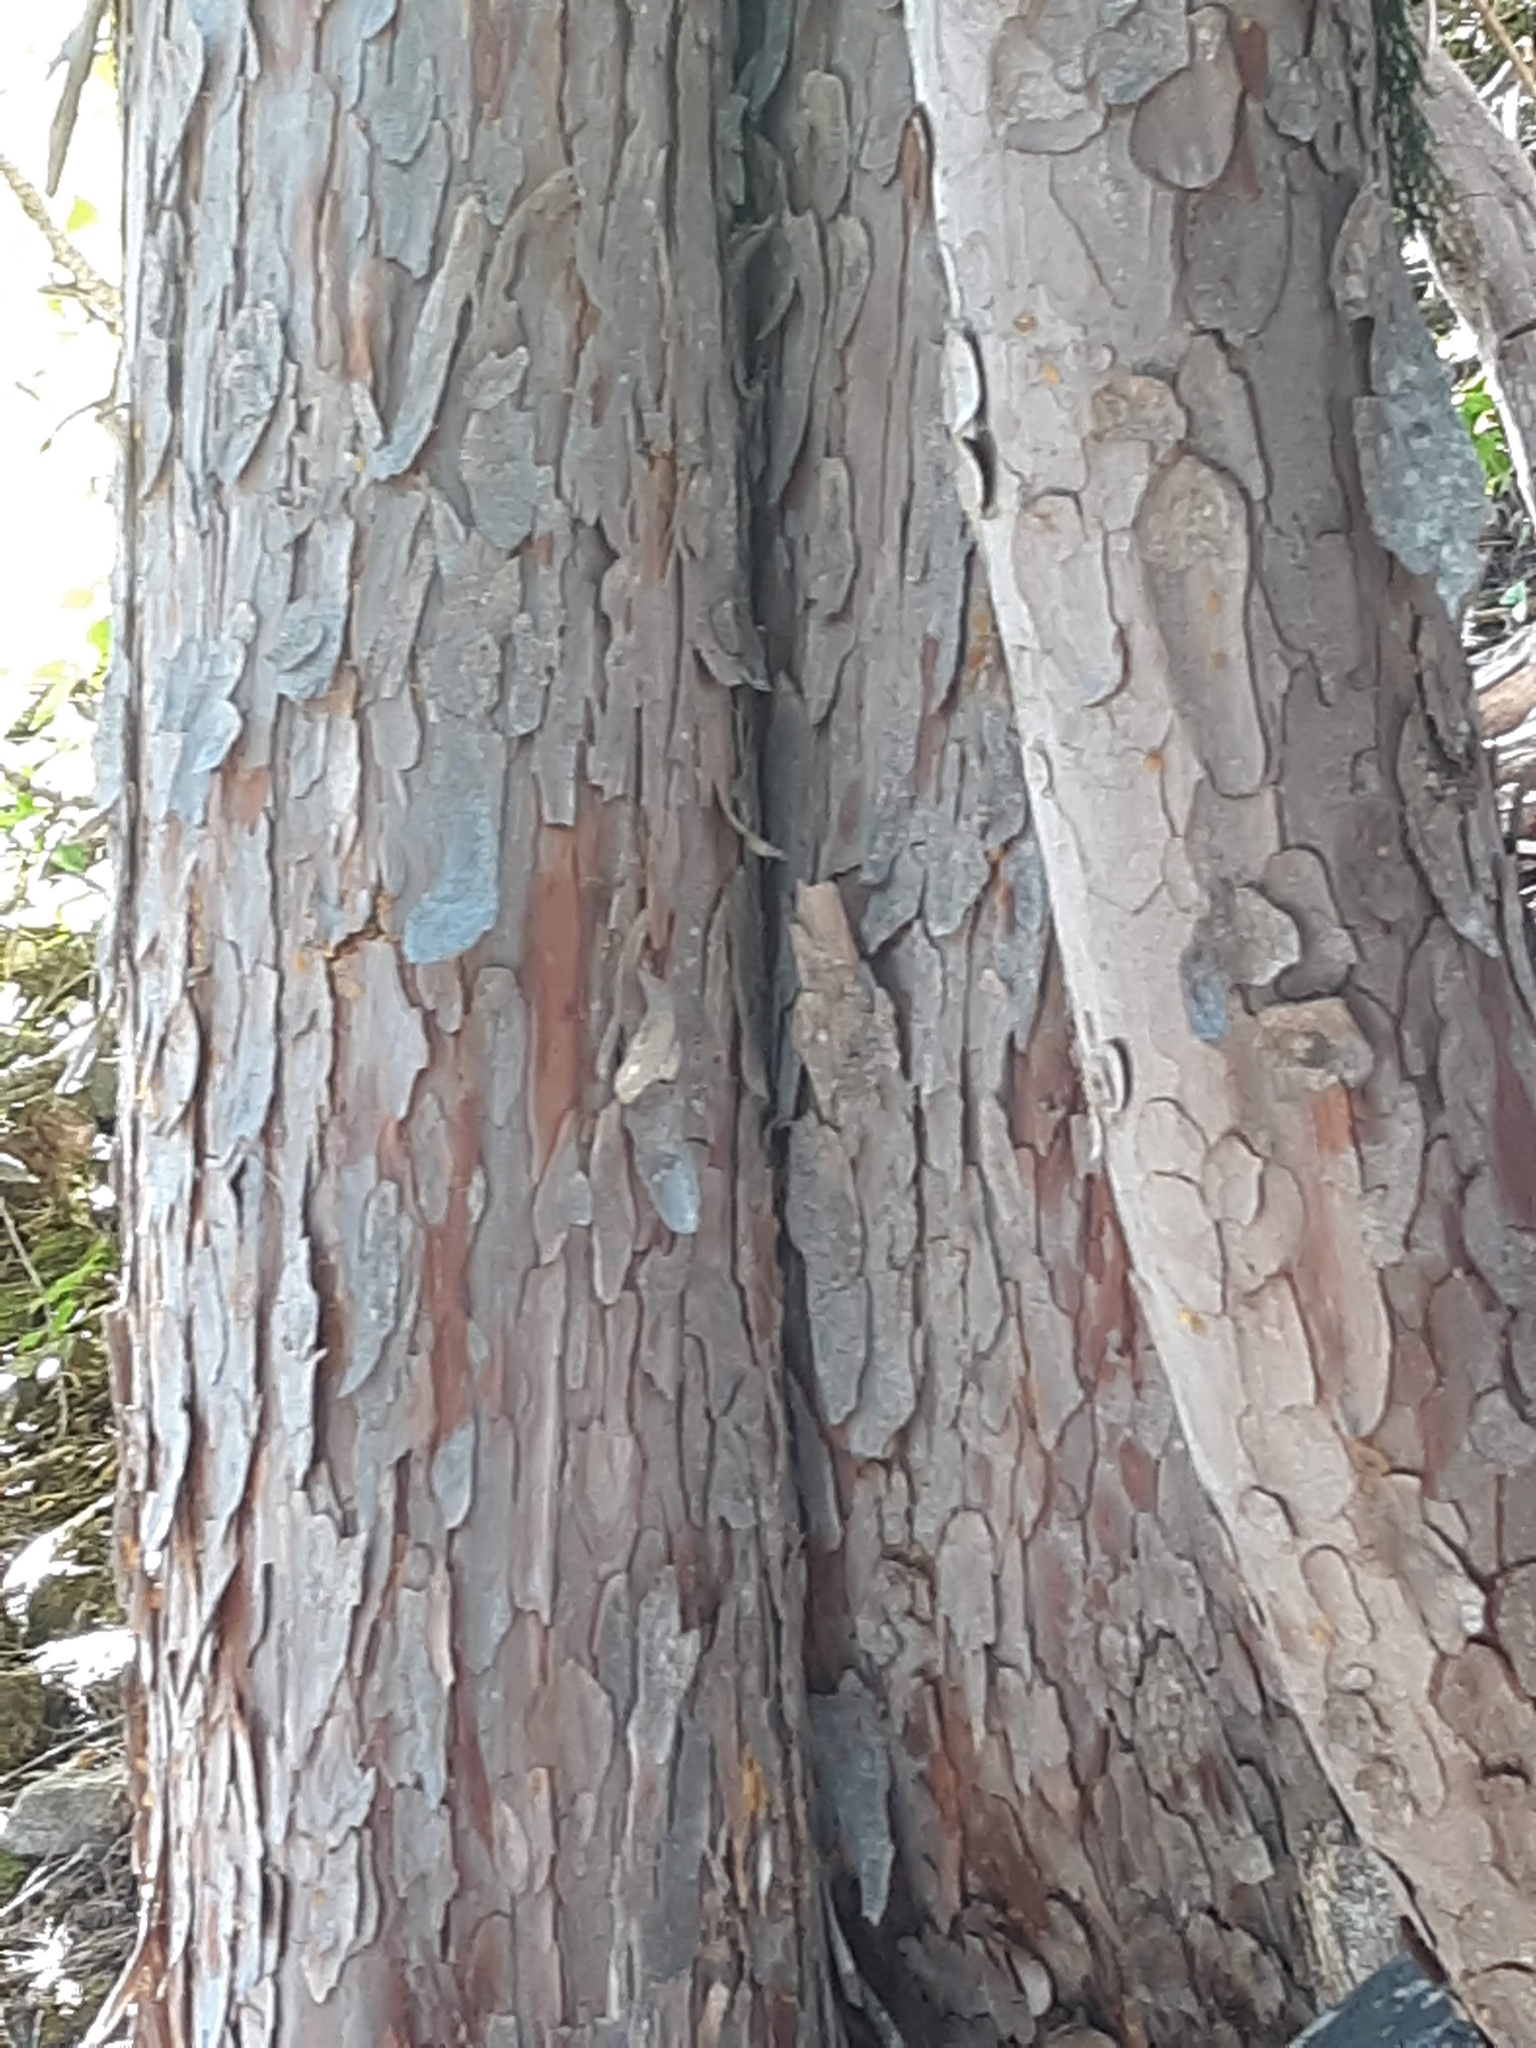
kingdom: Plantae
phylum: Tracheophyta
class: Pinopsida
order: Pinales
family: Cupressaceae
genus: Xanthocyparis
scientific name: Xanthocyparis nootkatensis
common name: Nootka cypress
